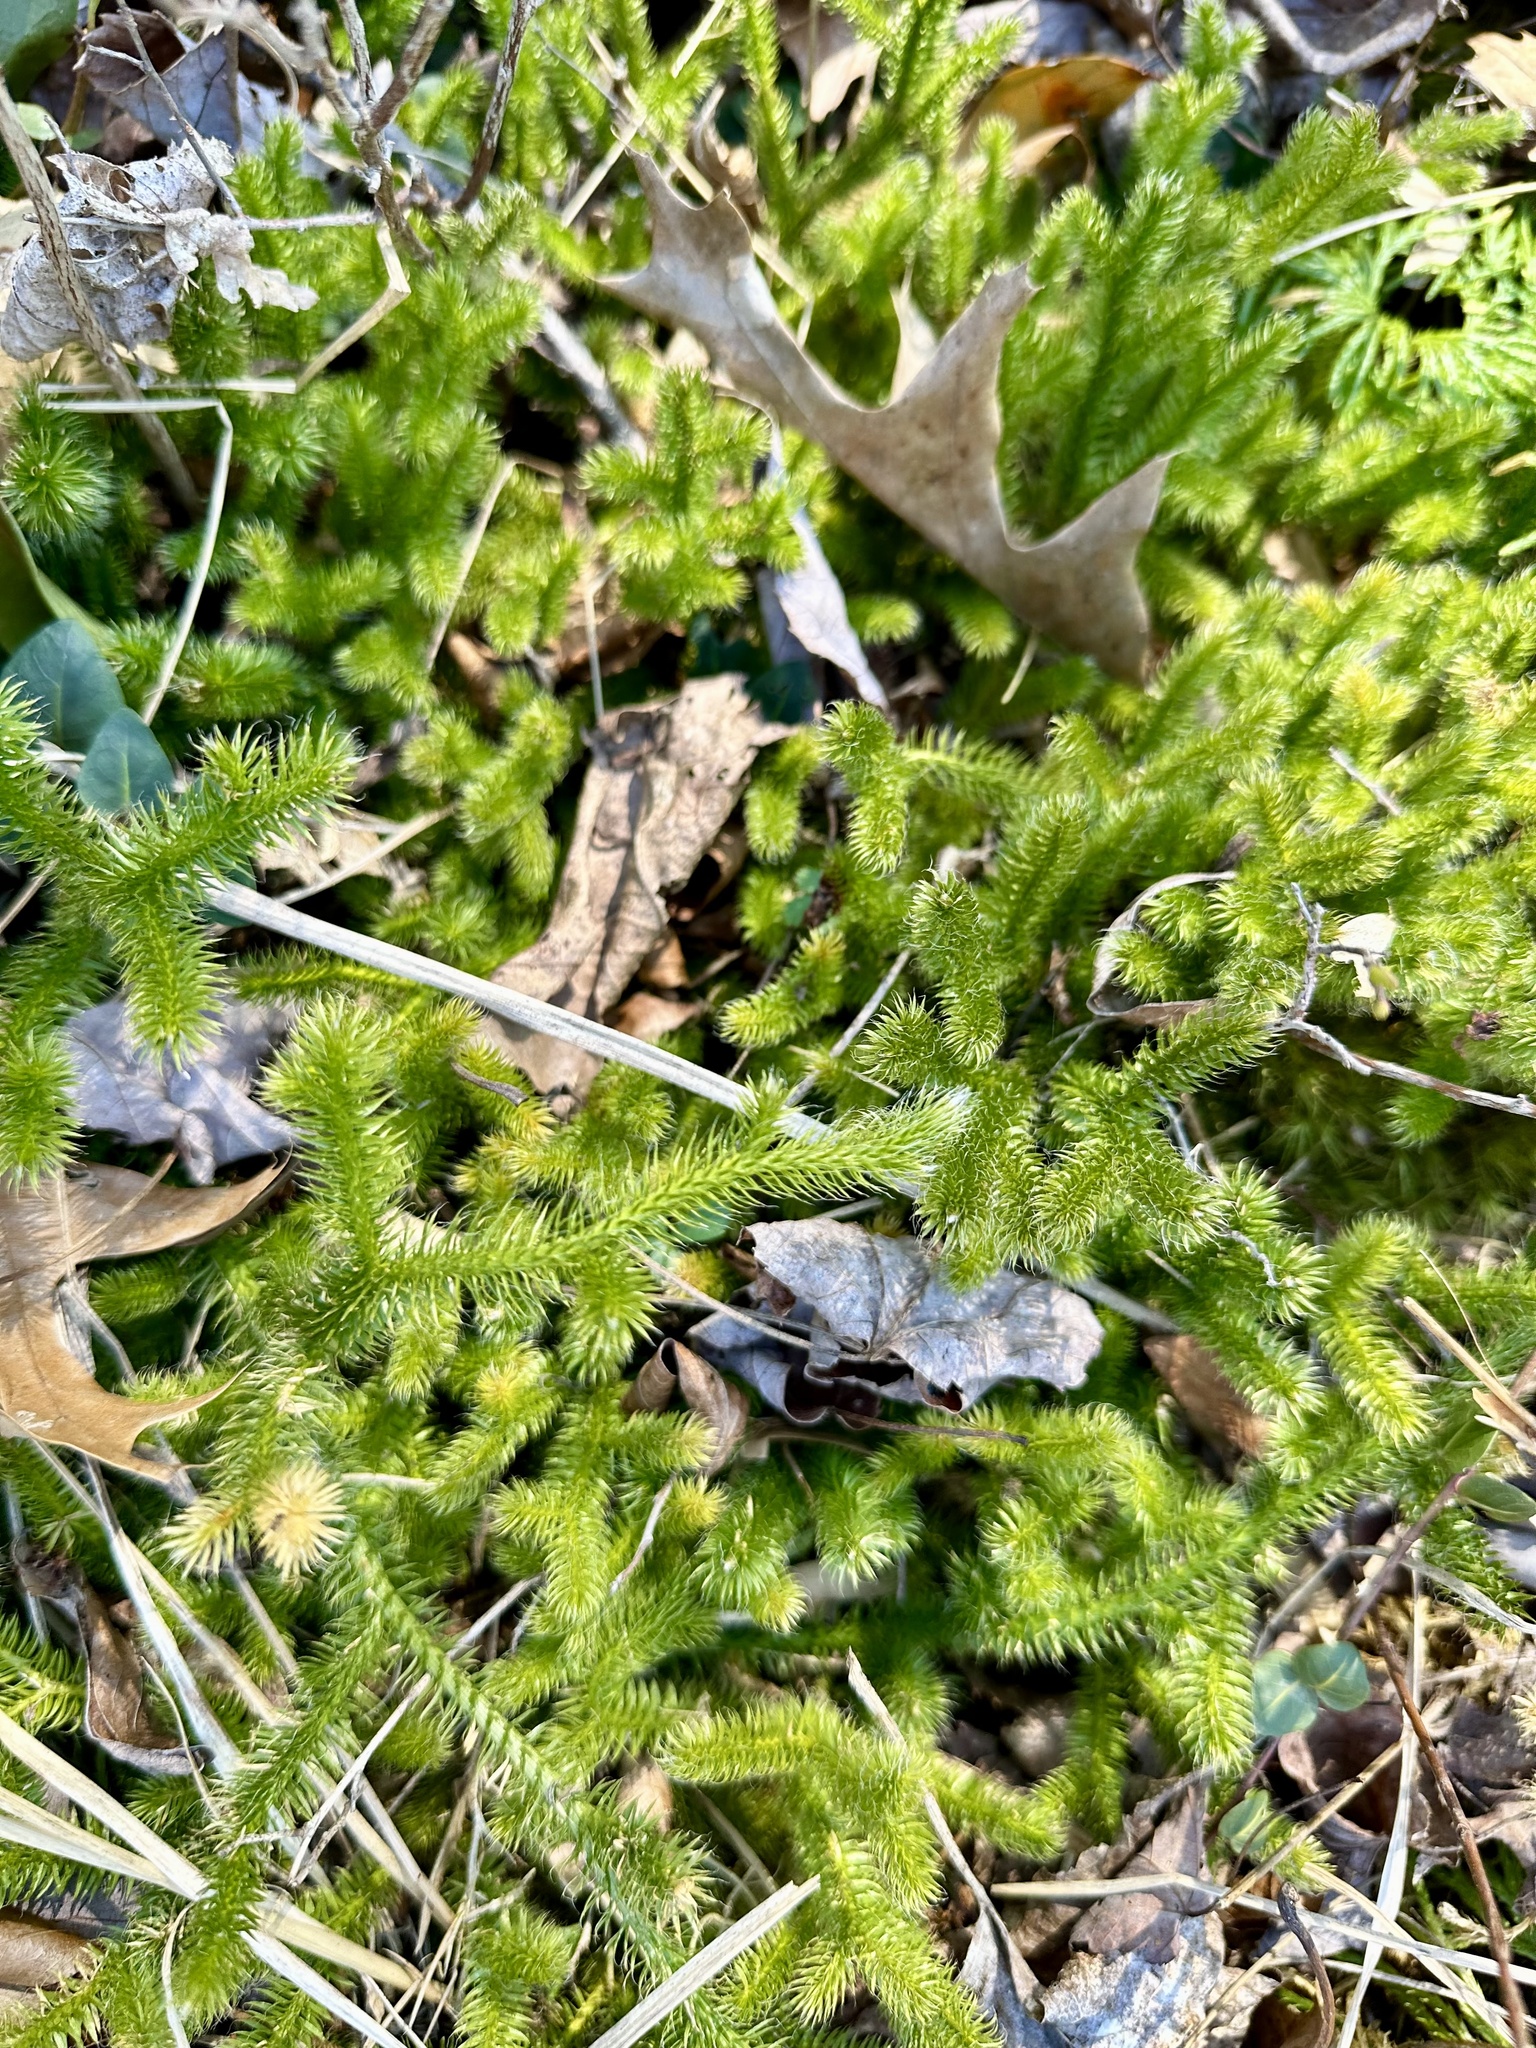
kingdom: Plantae
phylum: Tracheophyta
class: Lycopodiopsida
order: Lycopodiales
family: Lycopodiaceae
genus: Lycopodium
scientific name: Lycopodium clavatum
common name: Stag's-horn clubmoss
